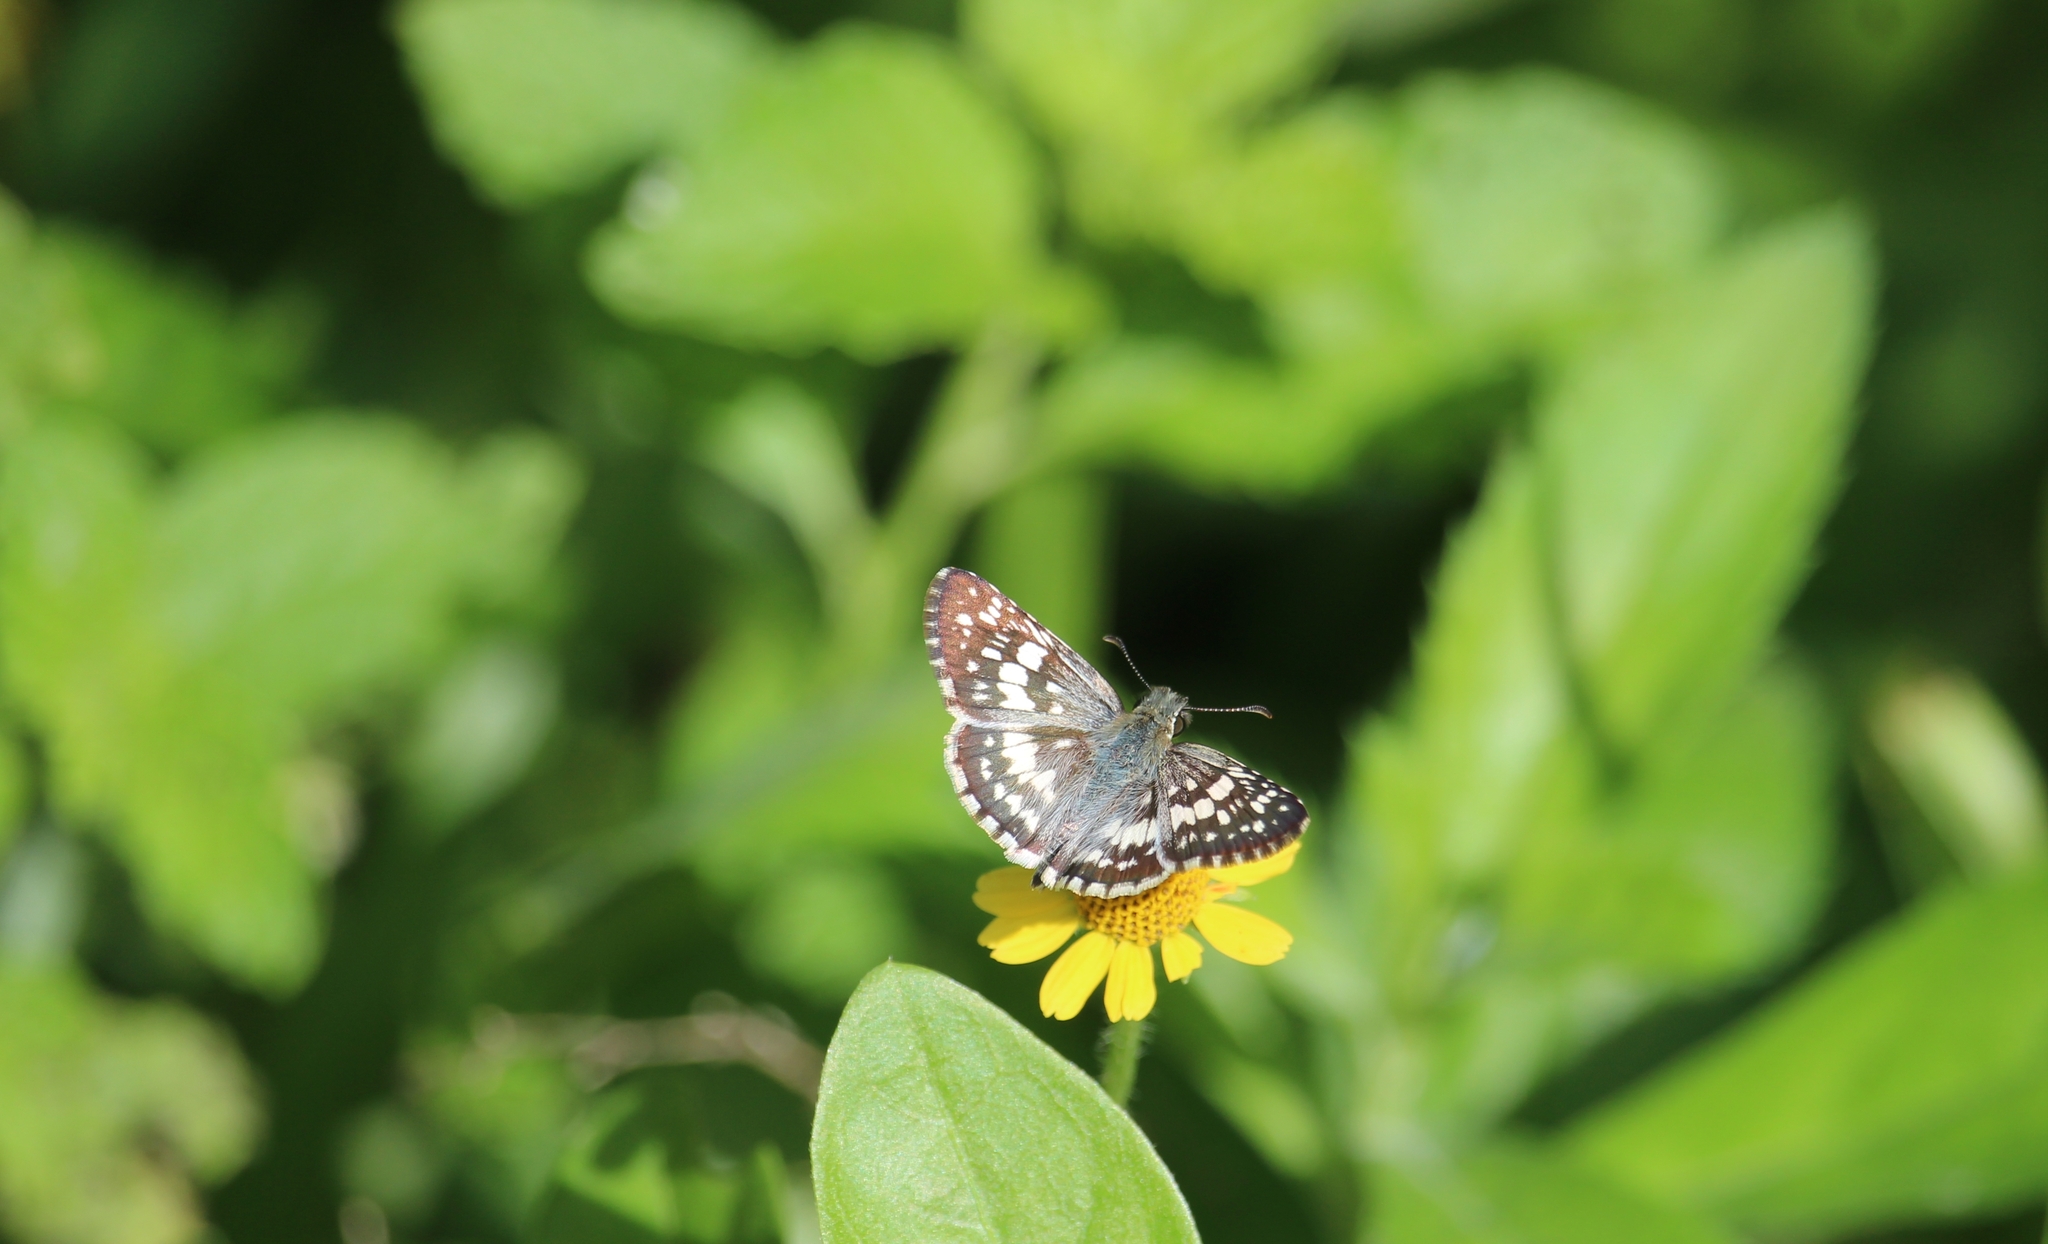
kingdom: Animalia
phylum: Arthropoda
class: Insecta
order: Lepidoptera
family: Hesperiidae
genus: Burnsius
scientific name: Burnsius adepta
